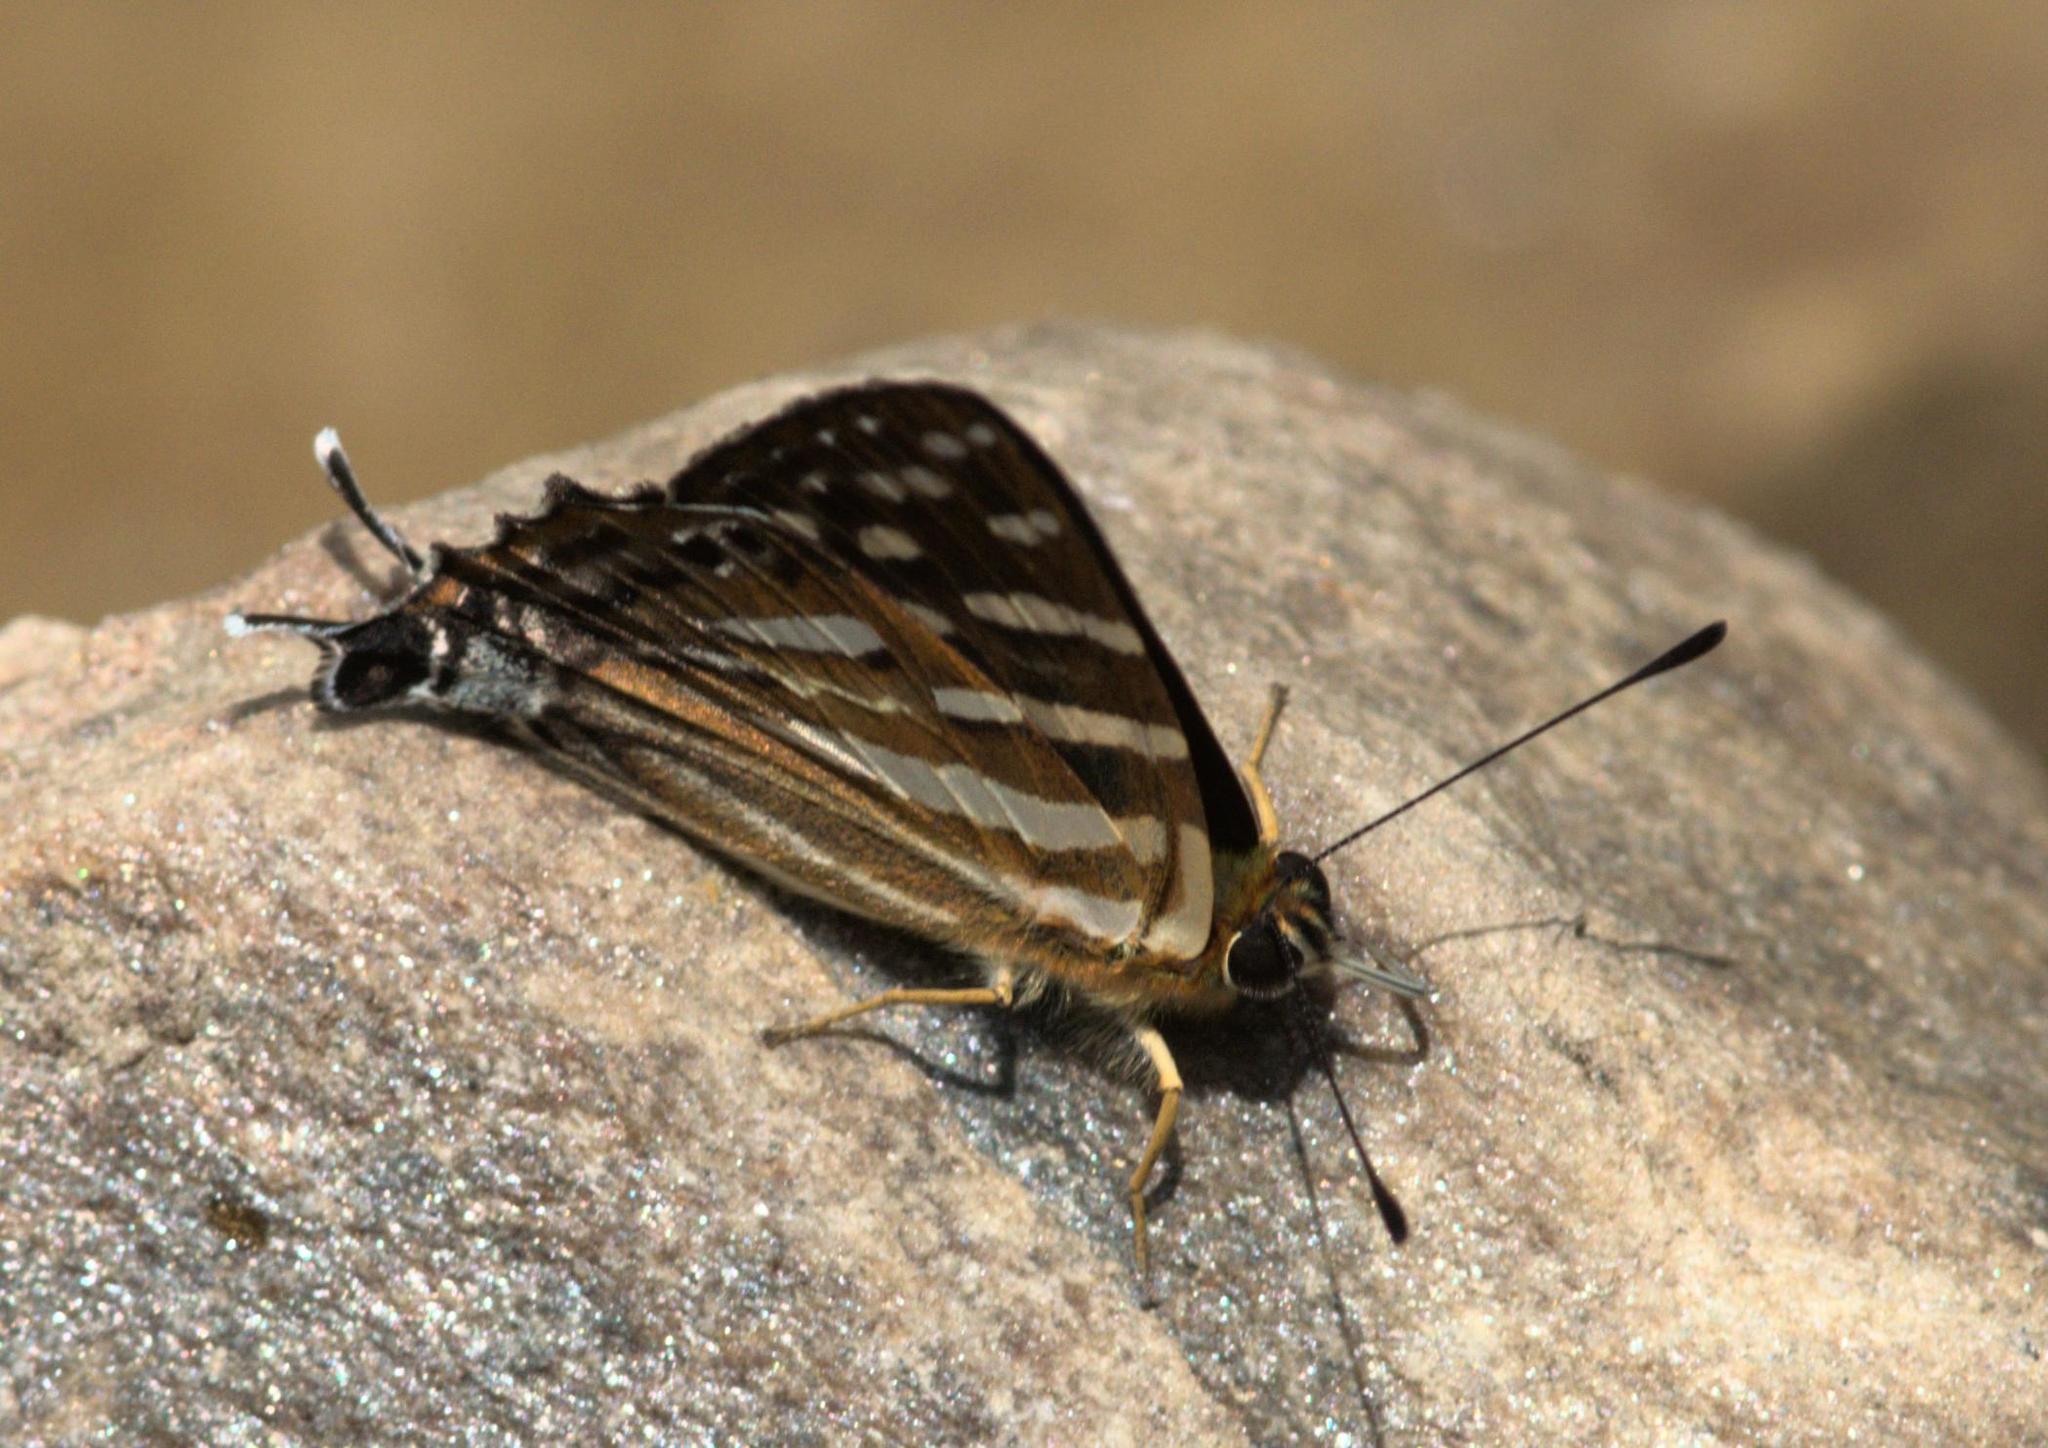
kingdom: Animalia
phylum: Arthropoda
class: Insecta
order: Lepidoptera
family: Lycaenidae
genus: Dodona
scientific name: Dodona eugenes
